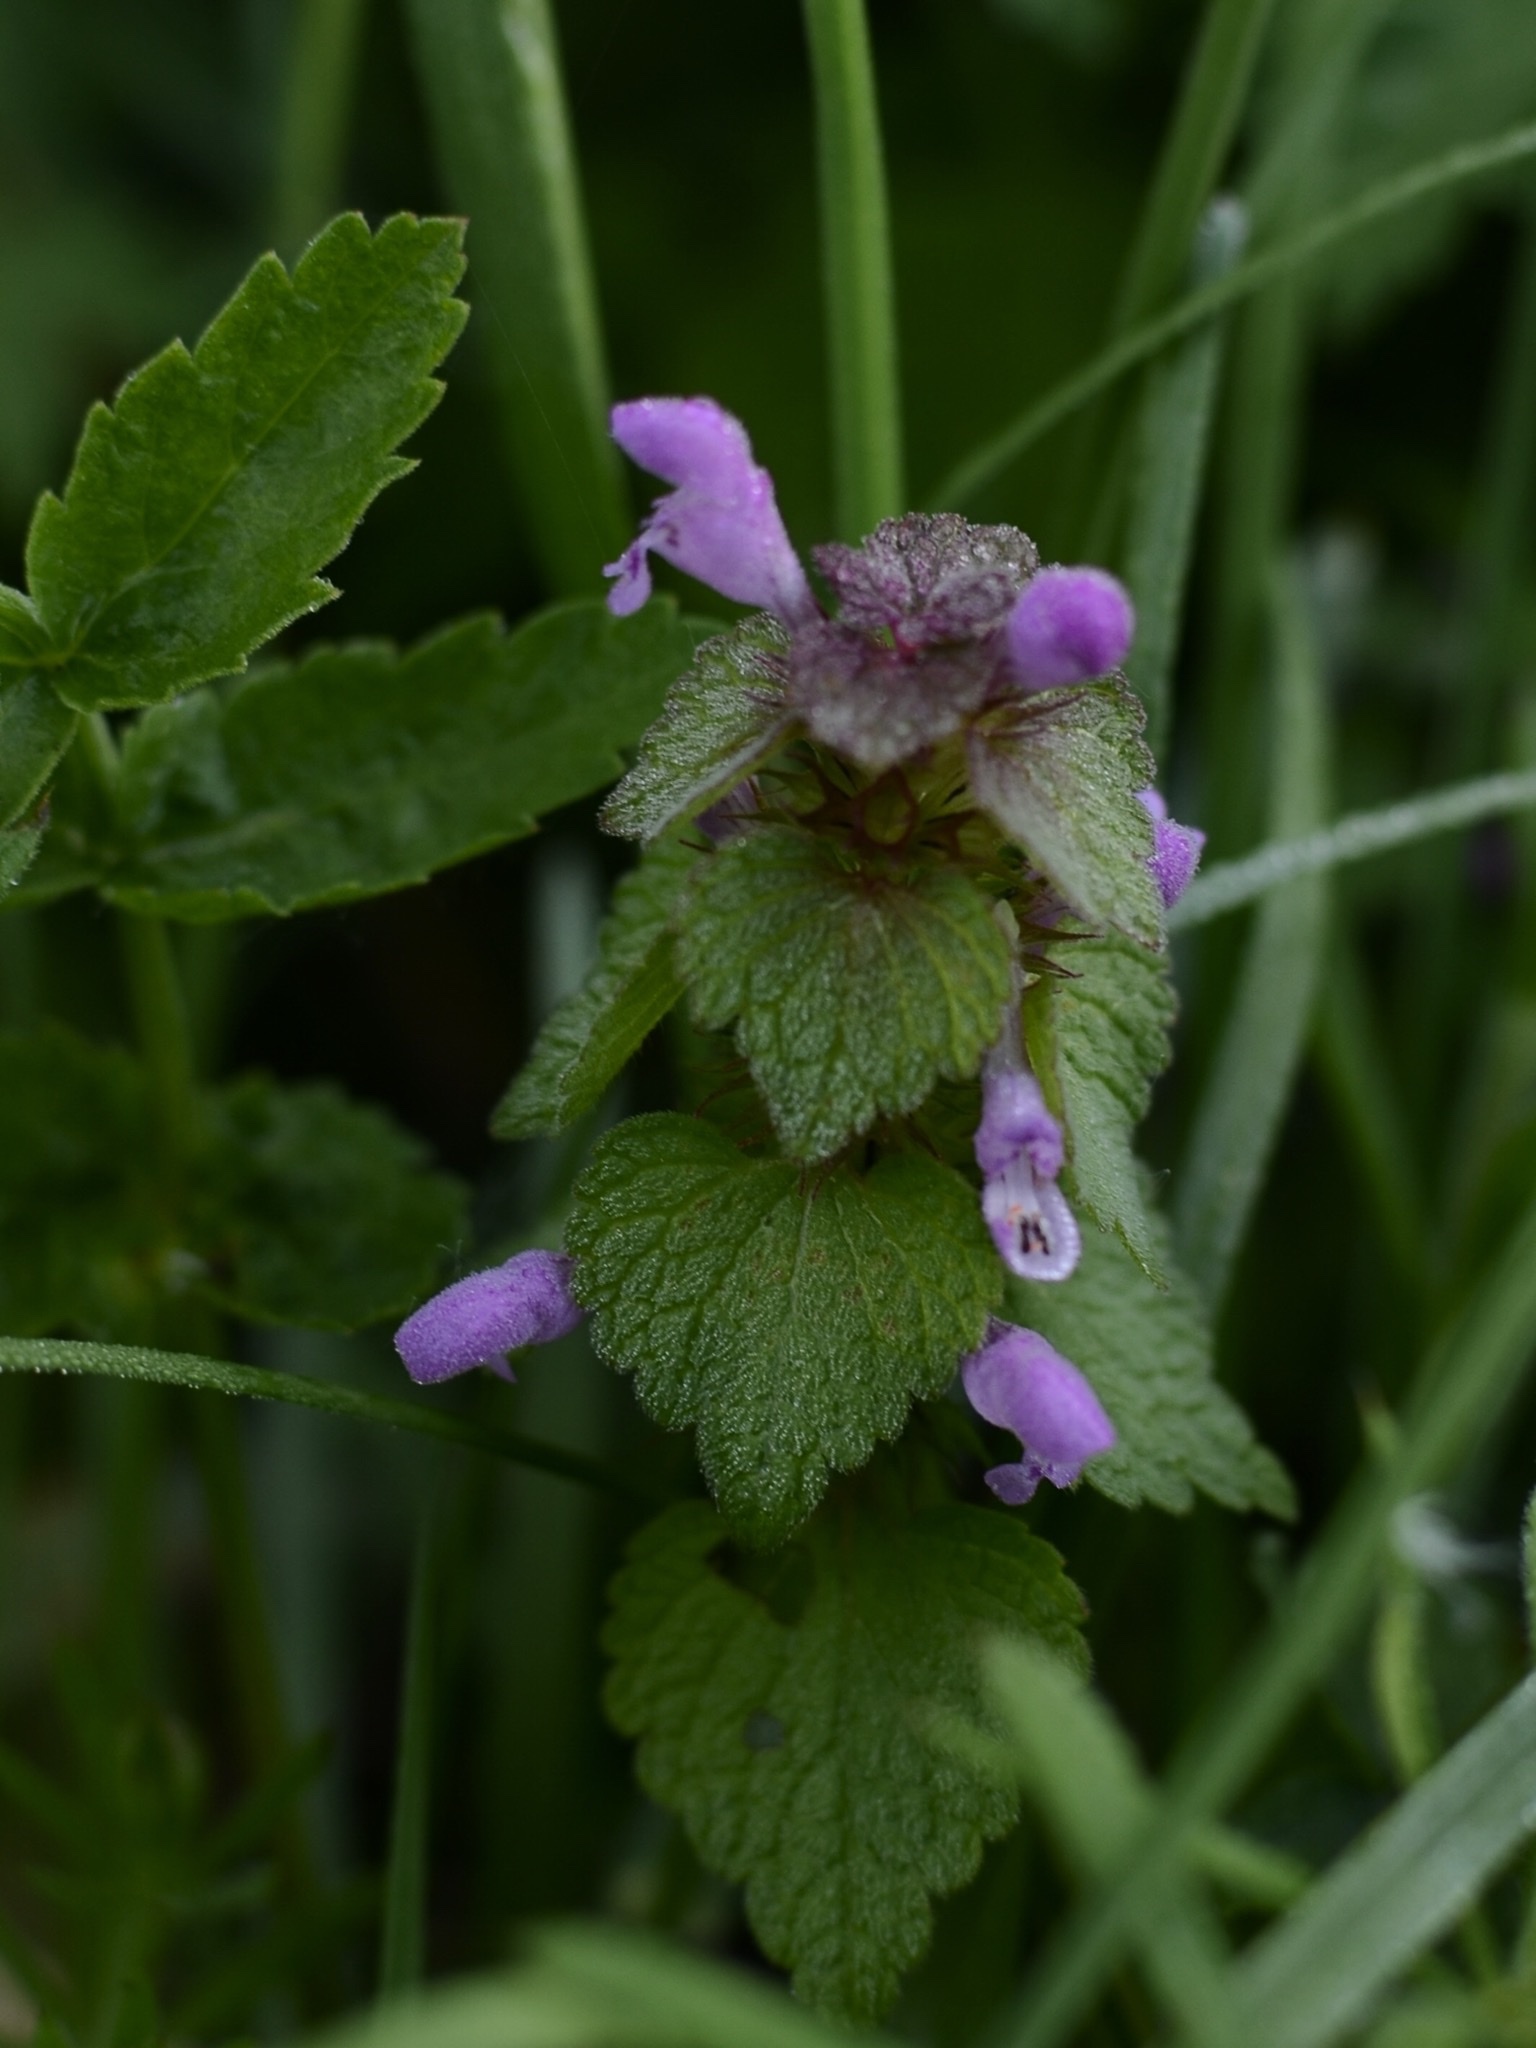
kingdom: Plantae
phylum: Tracheophyta
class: Magnoliopsida
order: Lamiales
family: Lamiaceae
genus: Lamium
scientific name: Lamium purpureum
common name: Red dead-nettle
